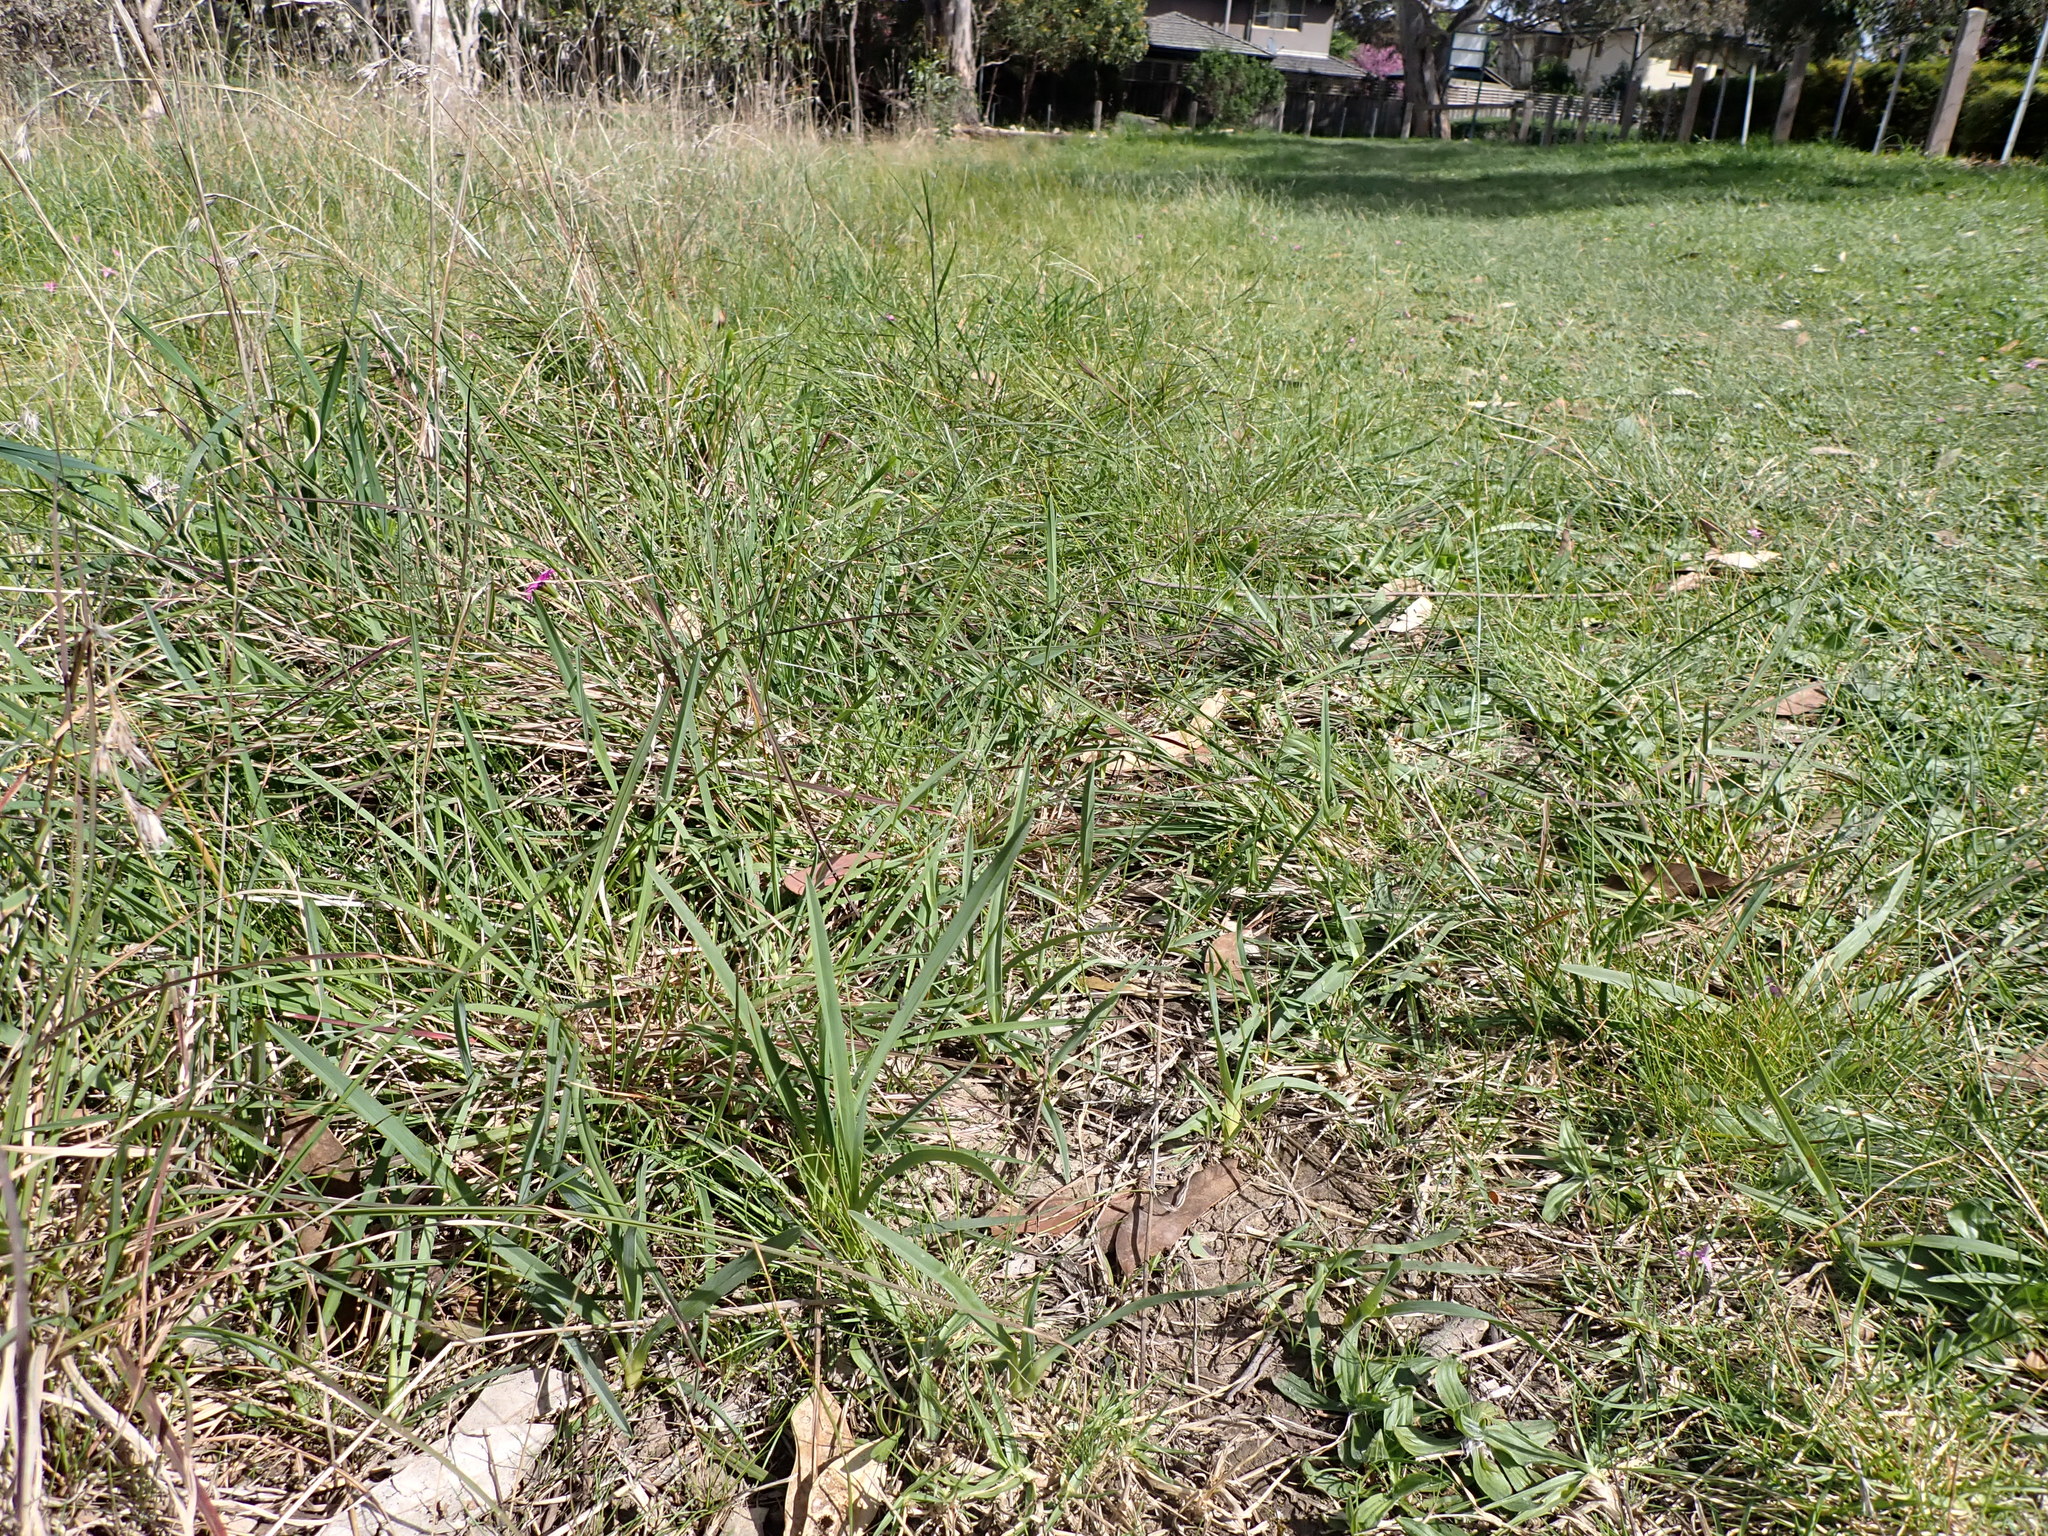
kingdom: Plantae
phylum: Tracheophyta
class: Liliopsida
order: Asparagales
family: Asphodelaceae
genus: Dianella
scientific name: Dianella amoena
